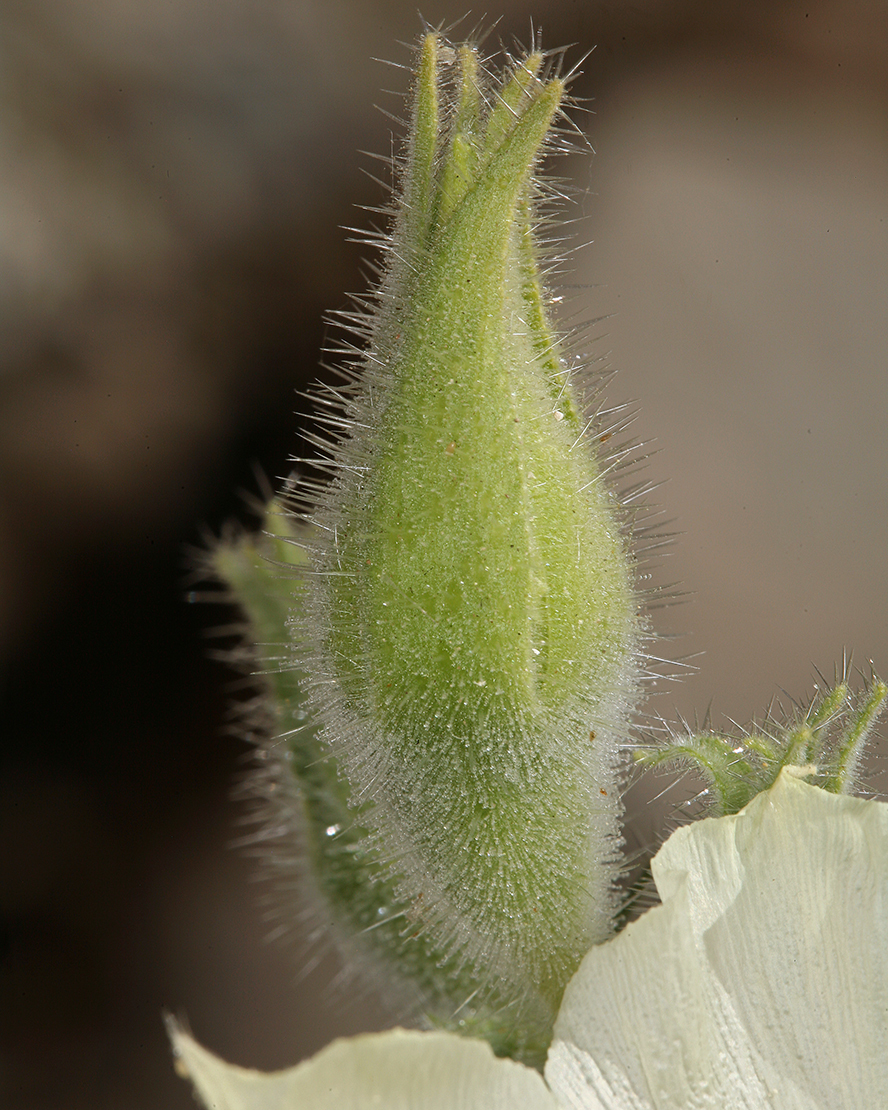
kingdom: Plantae
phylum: Tracheophyta
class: Magnoliopsida
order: Cornales
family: Loasaceae
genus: Eucnide
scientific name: Eucnide urens
